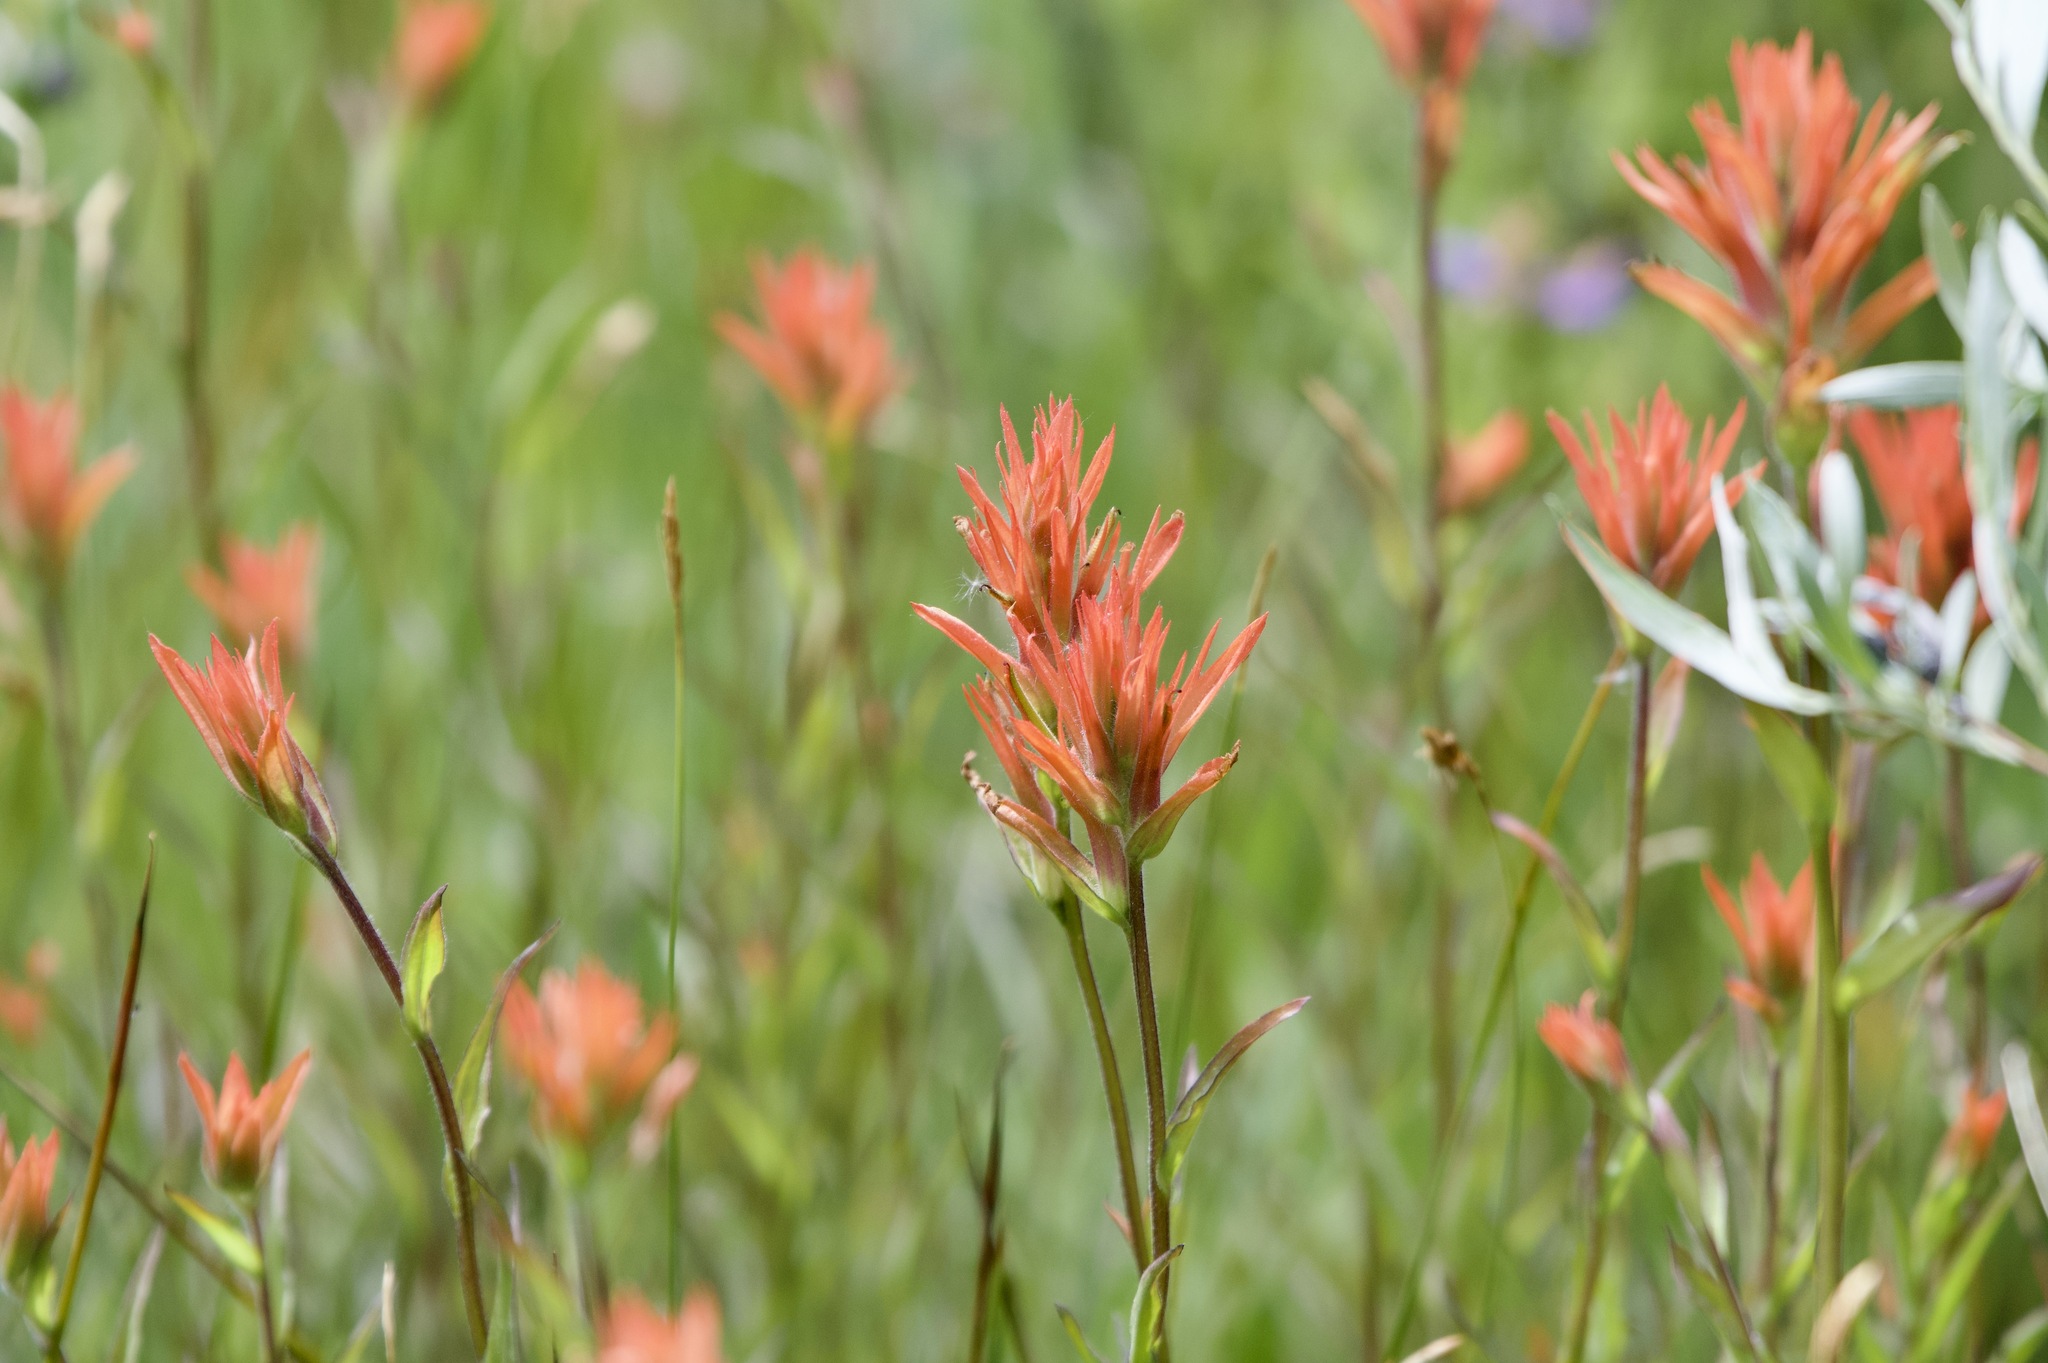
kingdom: Plantae
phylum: Tracheophyta
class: Magnoliopsida
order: Lamiales
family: Orobanchaceae
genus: Castilleja
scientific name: Castilleja miniata
